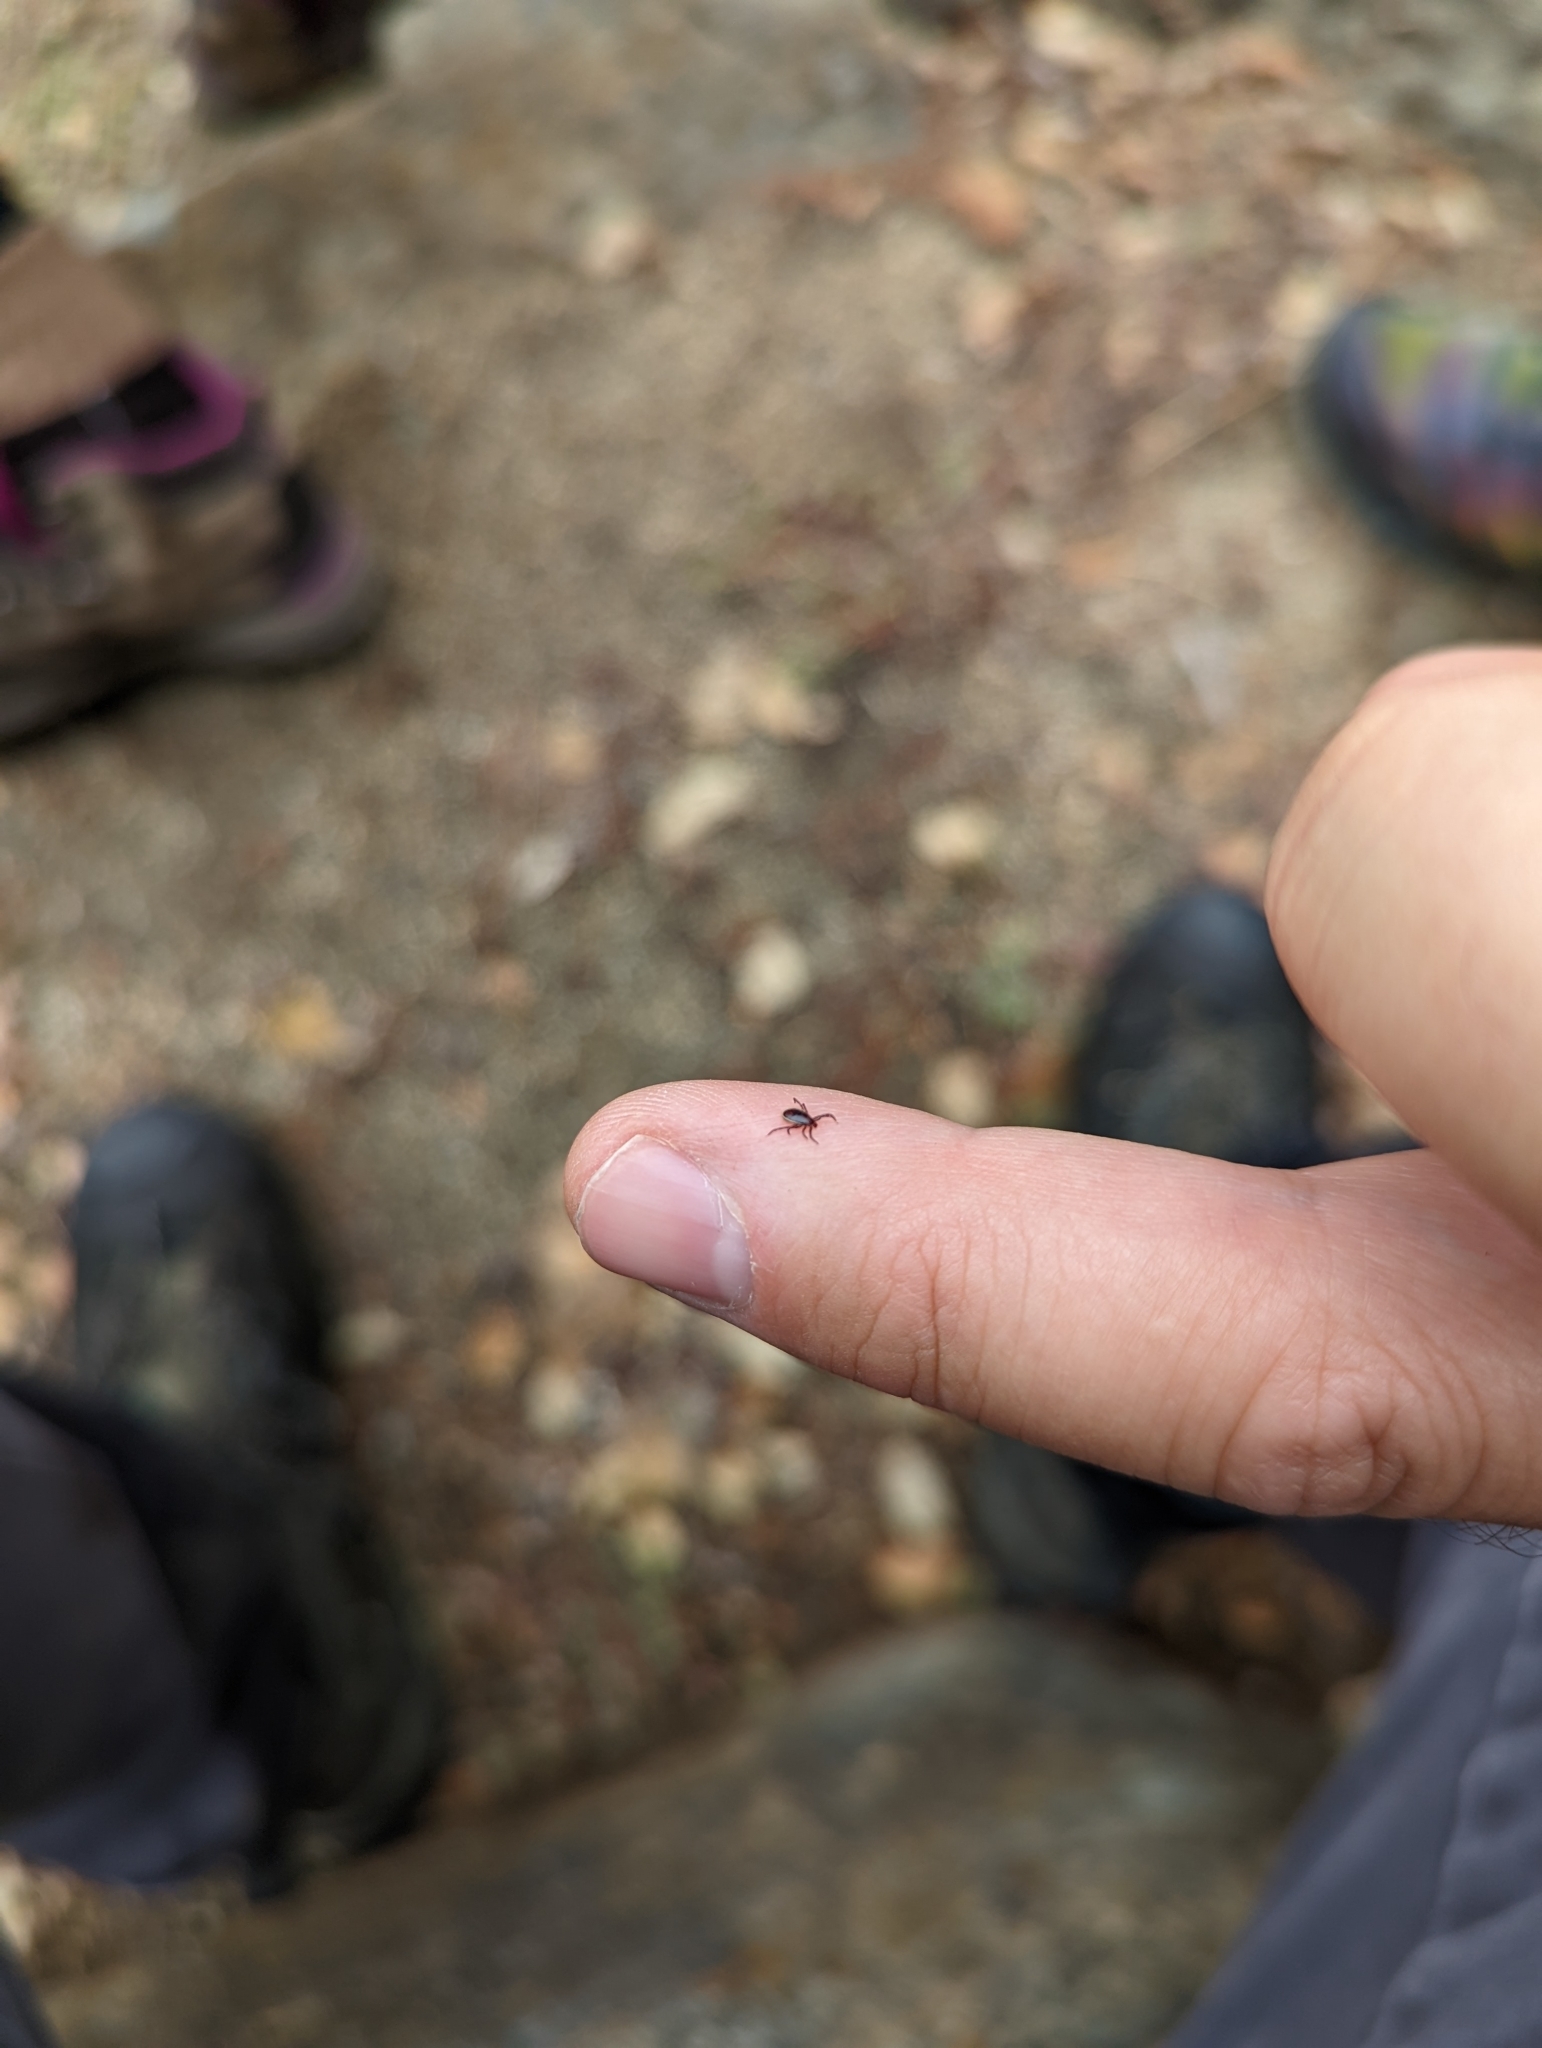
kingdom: Animalia
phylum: Arthropoda
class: Arachnida
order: Ixodida
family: Ixodidae
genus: Ixodes
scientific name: Ixodes pacificus
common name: California black-legged tick
